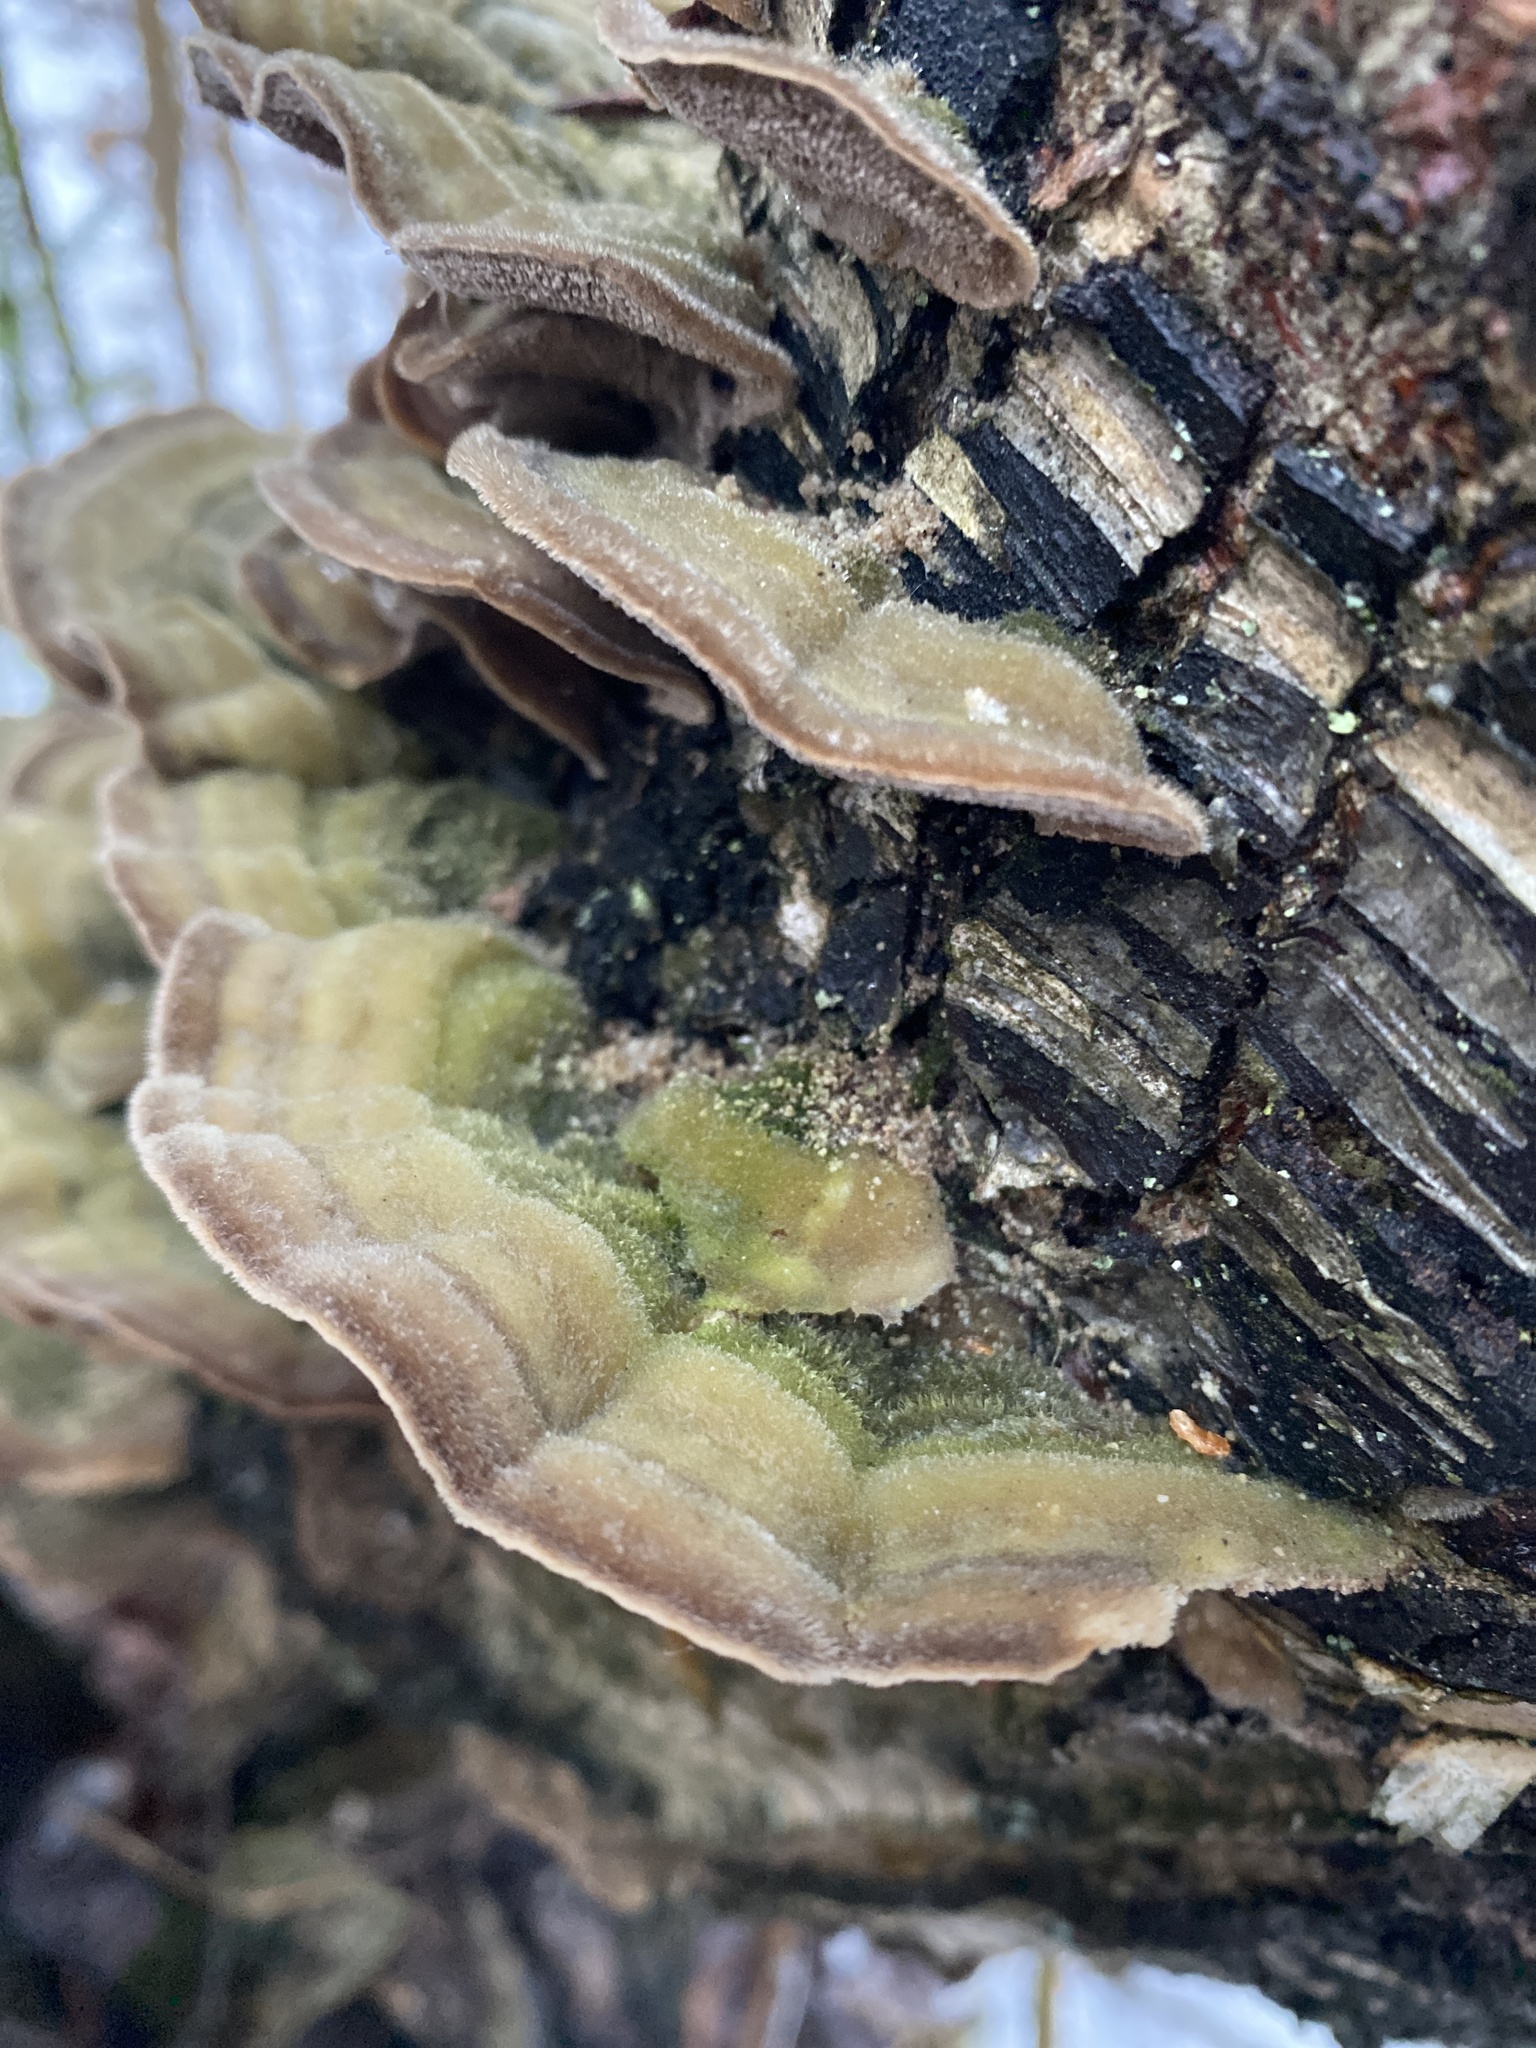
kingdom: Fungi
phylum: Basidiomycota
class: Agaricomycetes
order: Polyporales
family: Cerrenaceae
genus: Cerrena
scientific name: Cerrena unicolor
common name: Mossy maze polypore
